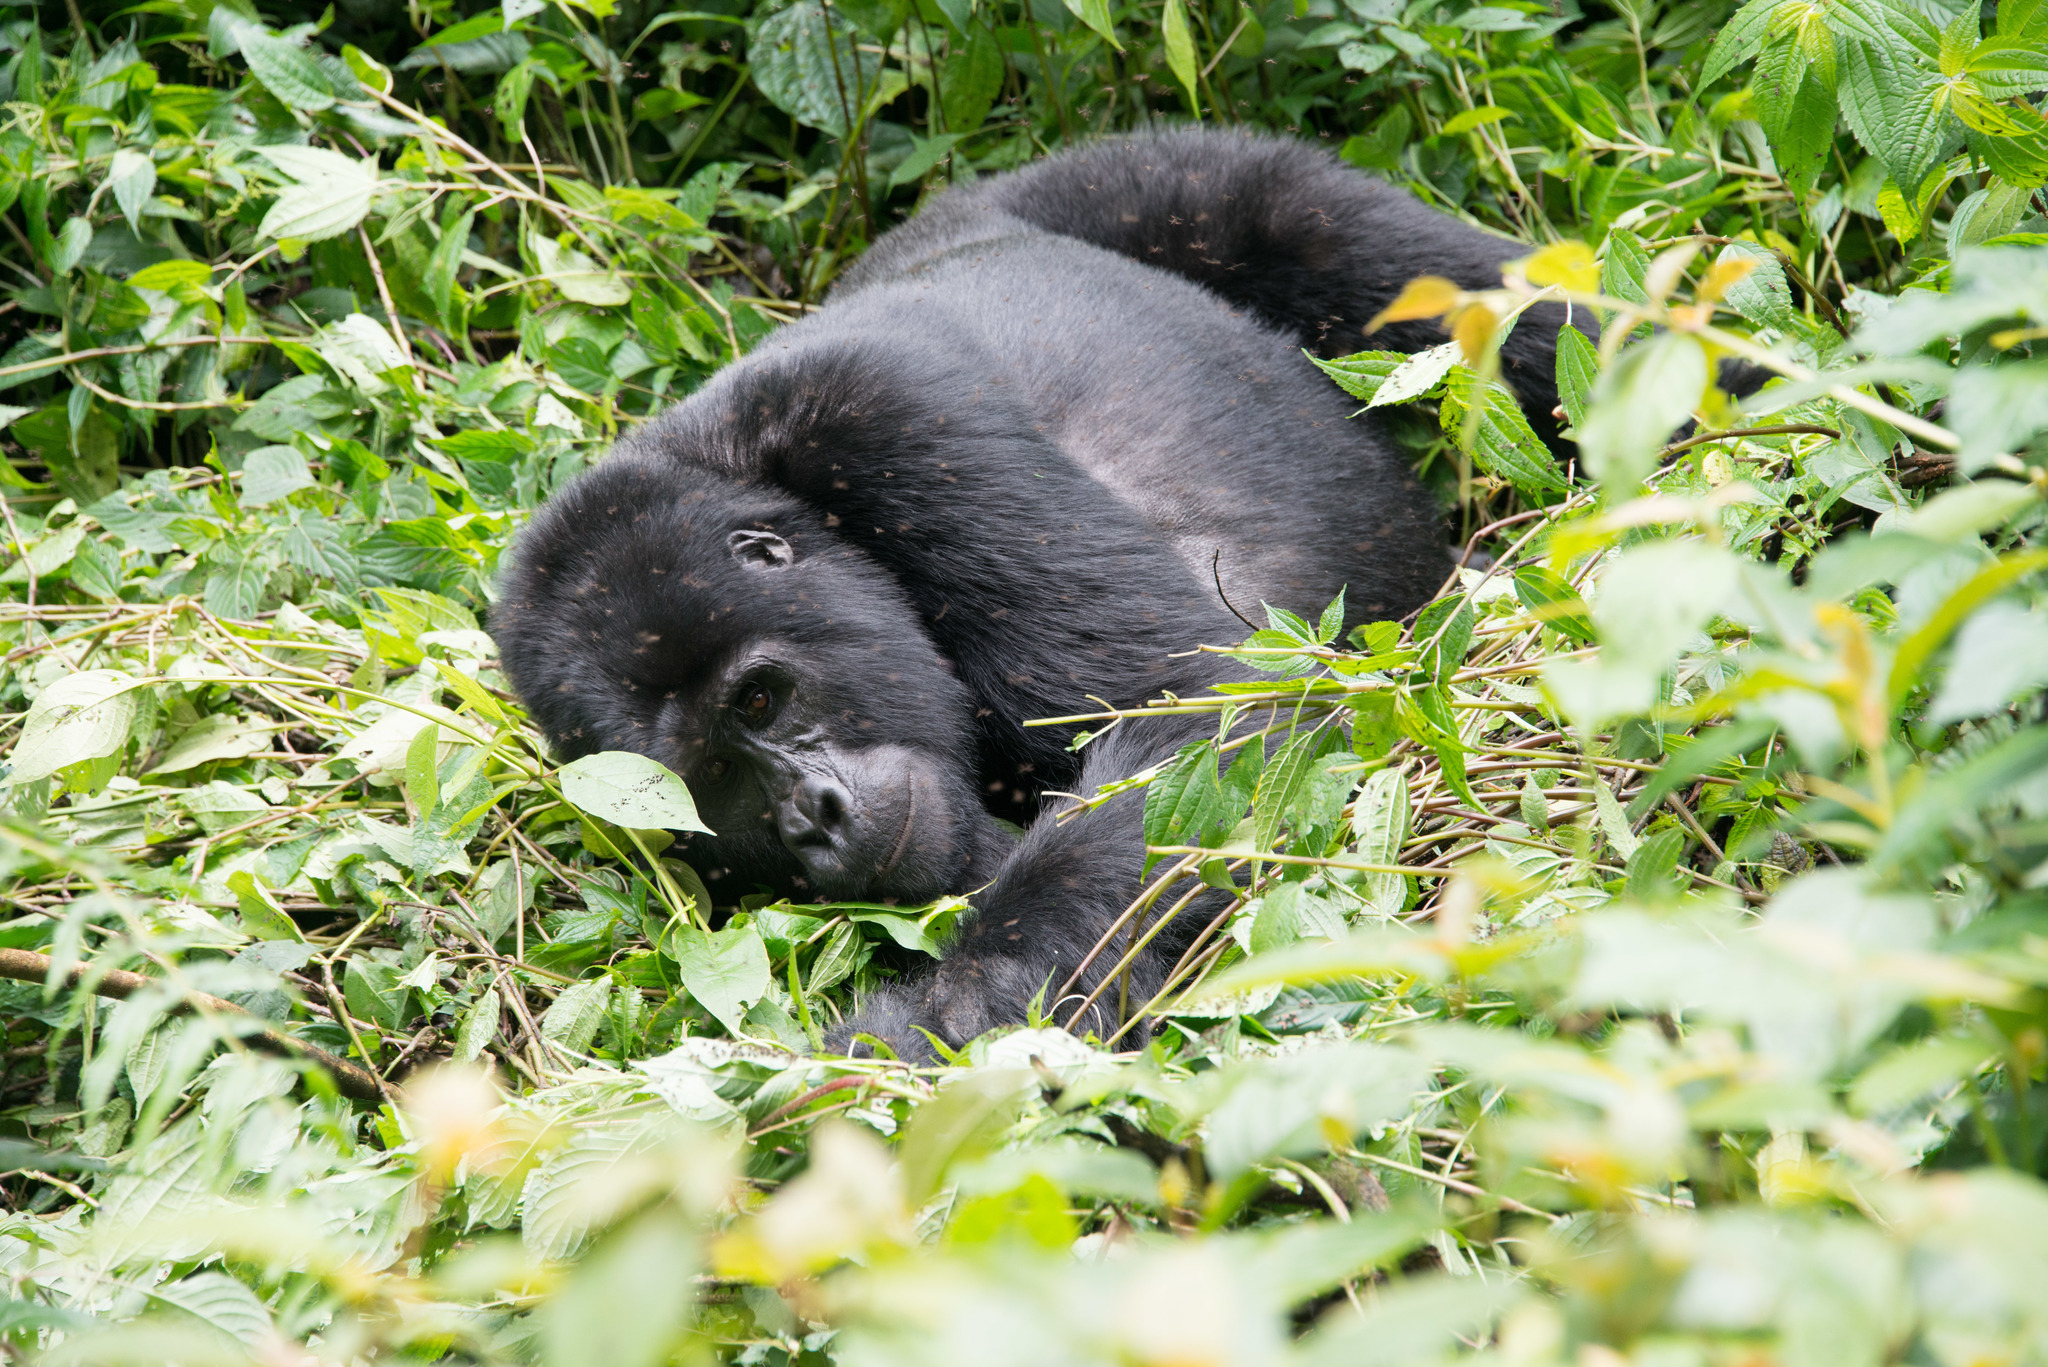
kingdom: Animalia
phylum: Chordata
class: Mammalia
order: Primates
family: Hominidae
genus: Gorilla
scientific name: Gorilla beringei
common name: Eastern gorilla
